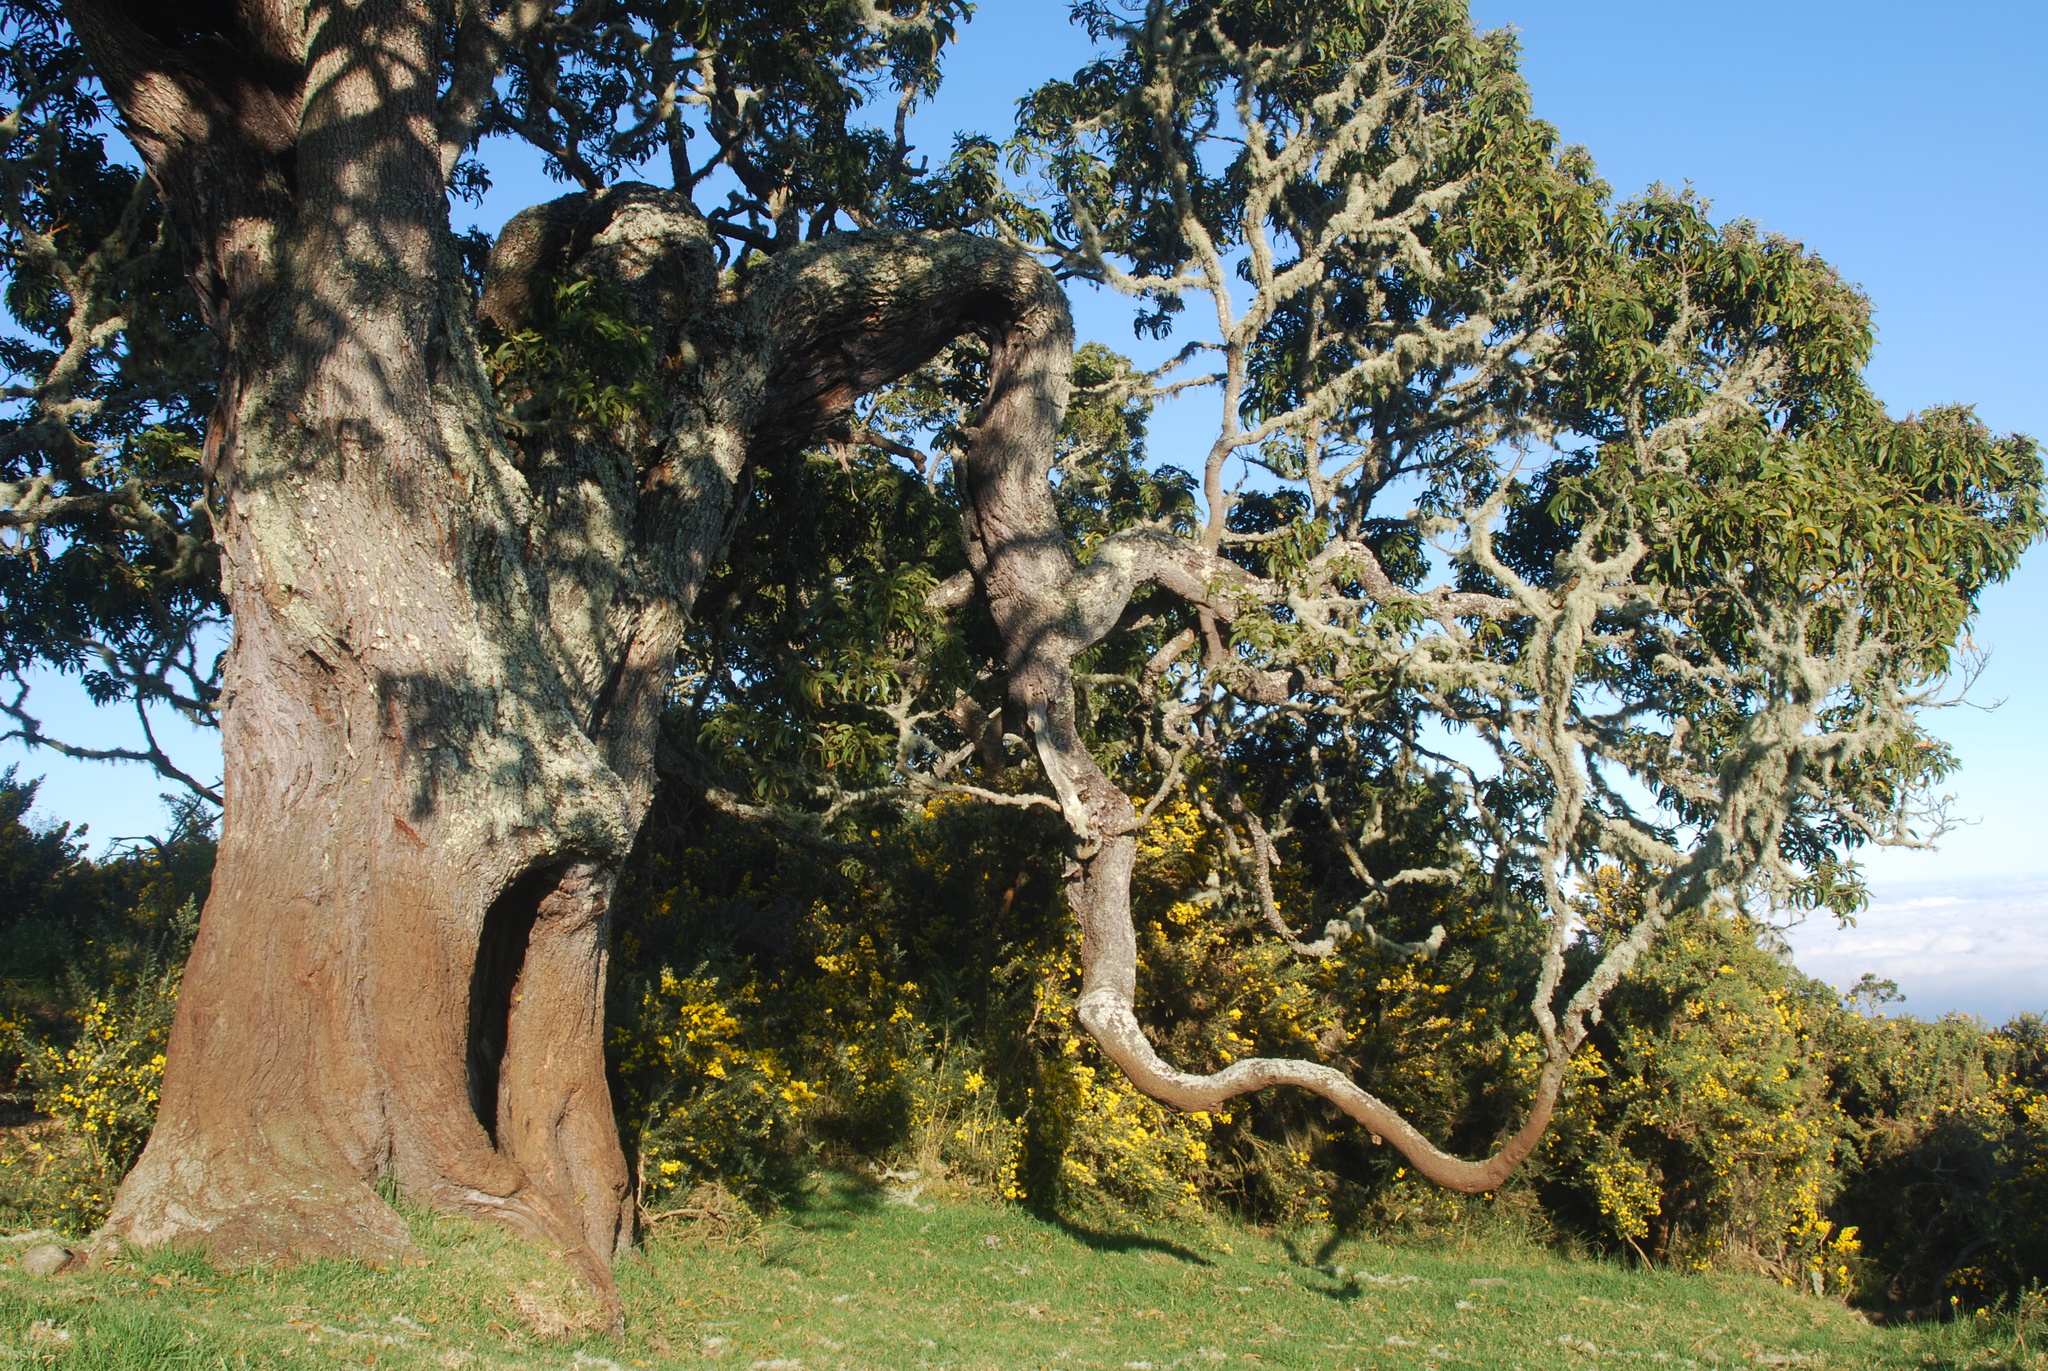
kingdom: Plantae
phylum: Tracheophyta
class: Magnoliopsida
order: Fabales
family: Fabaceae
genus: Acacia
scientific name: Acacia koa
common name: Gray koa
